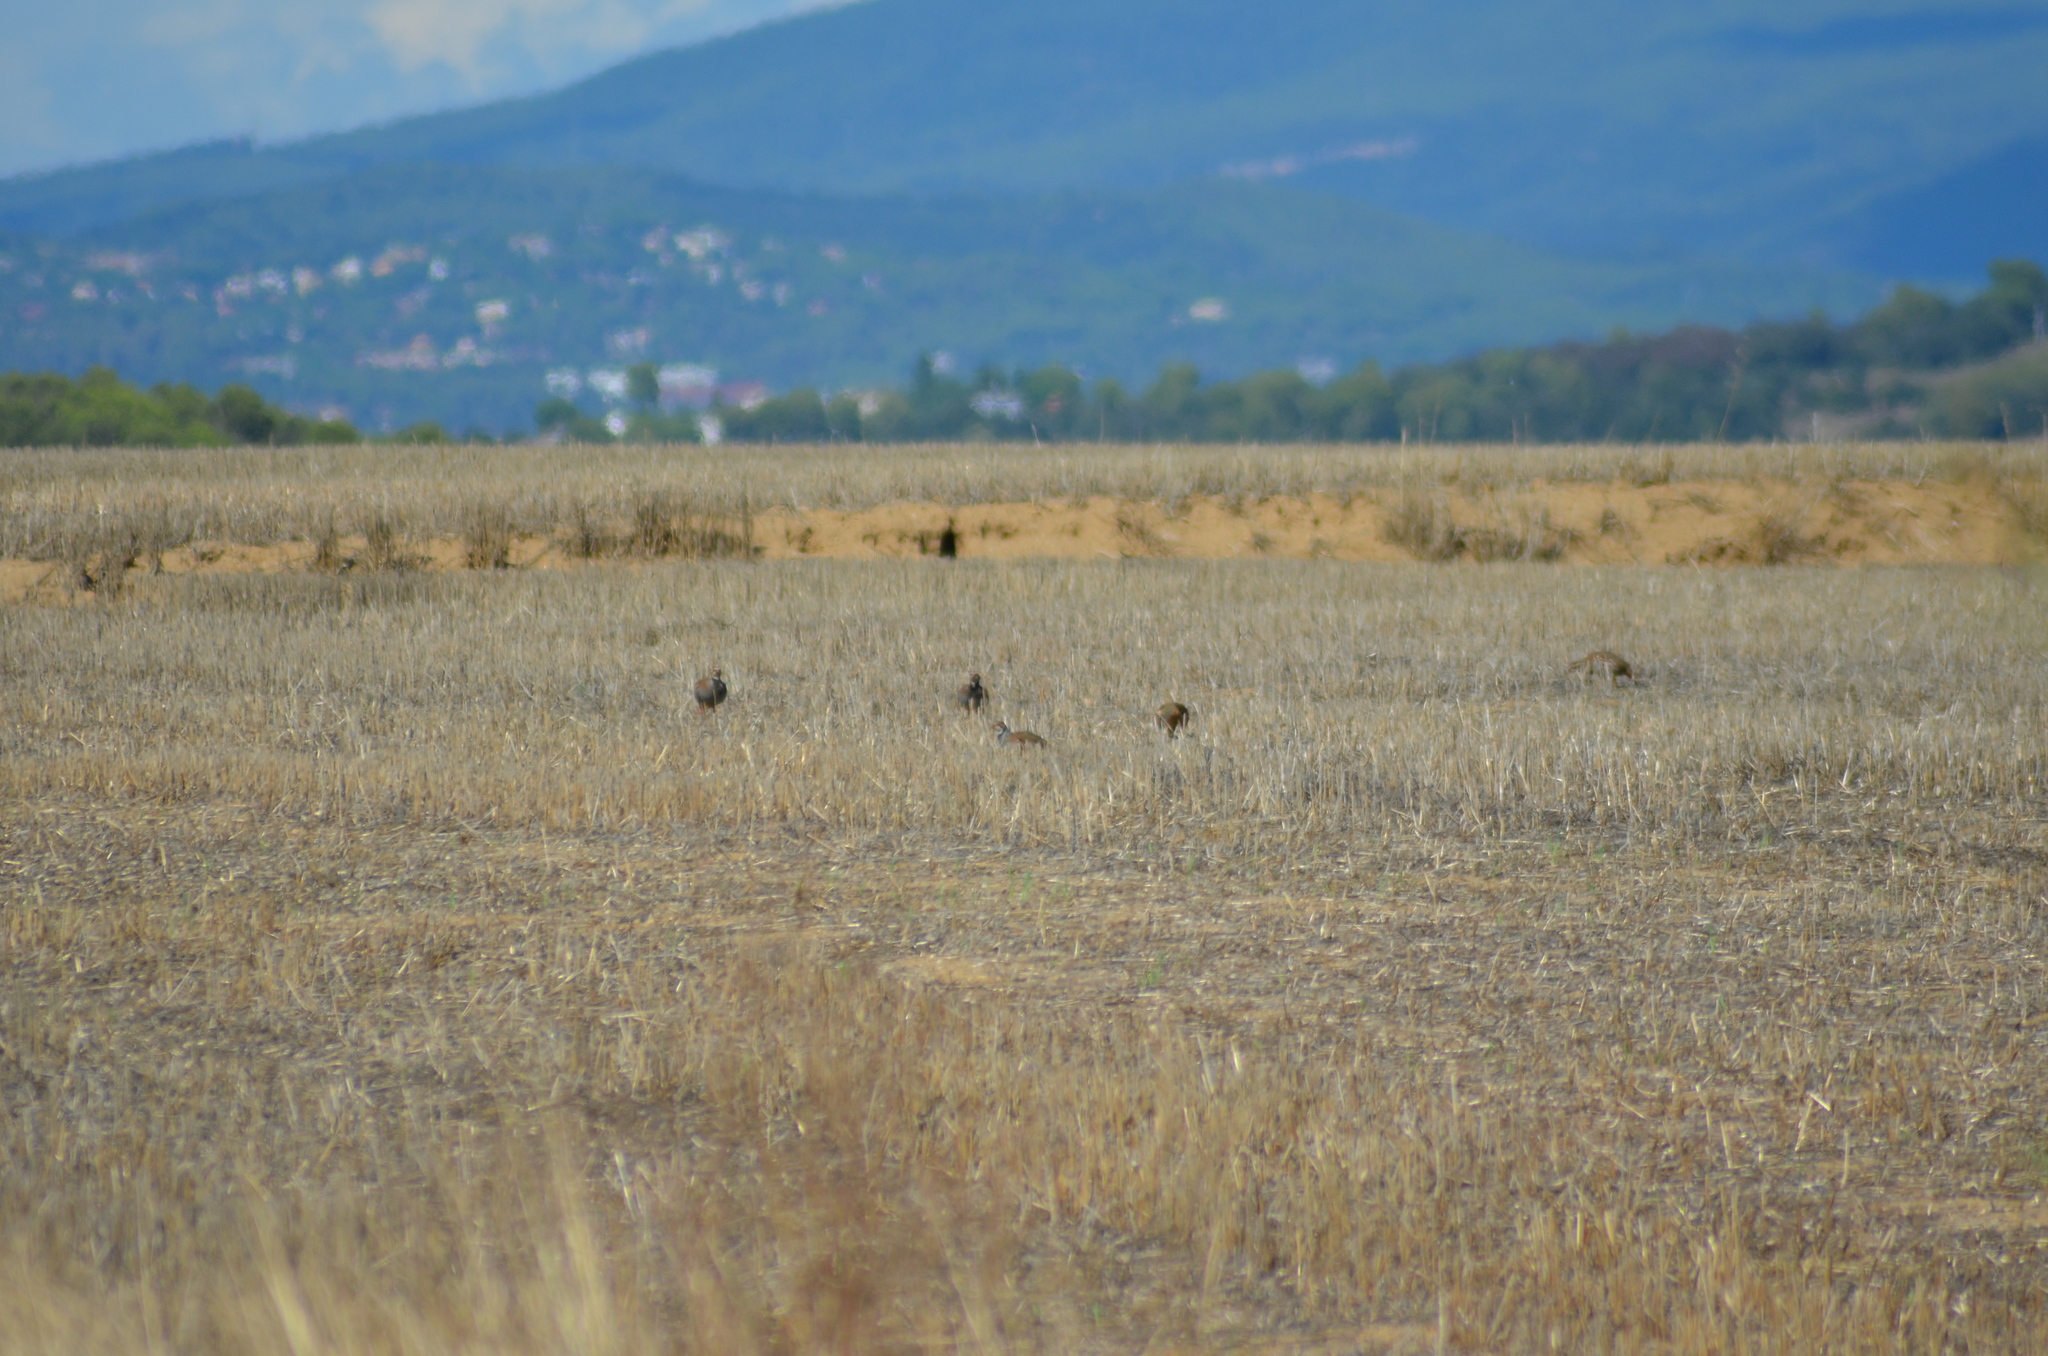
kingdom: Animalia
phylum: Chordata
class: Aves
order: Galliformes
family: Phasianidae
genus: Alectoris
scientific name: Alectoris rufa
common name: Red-legged partridge
